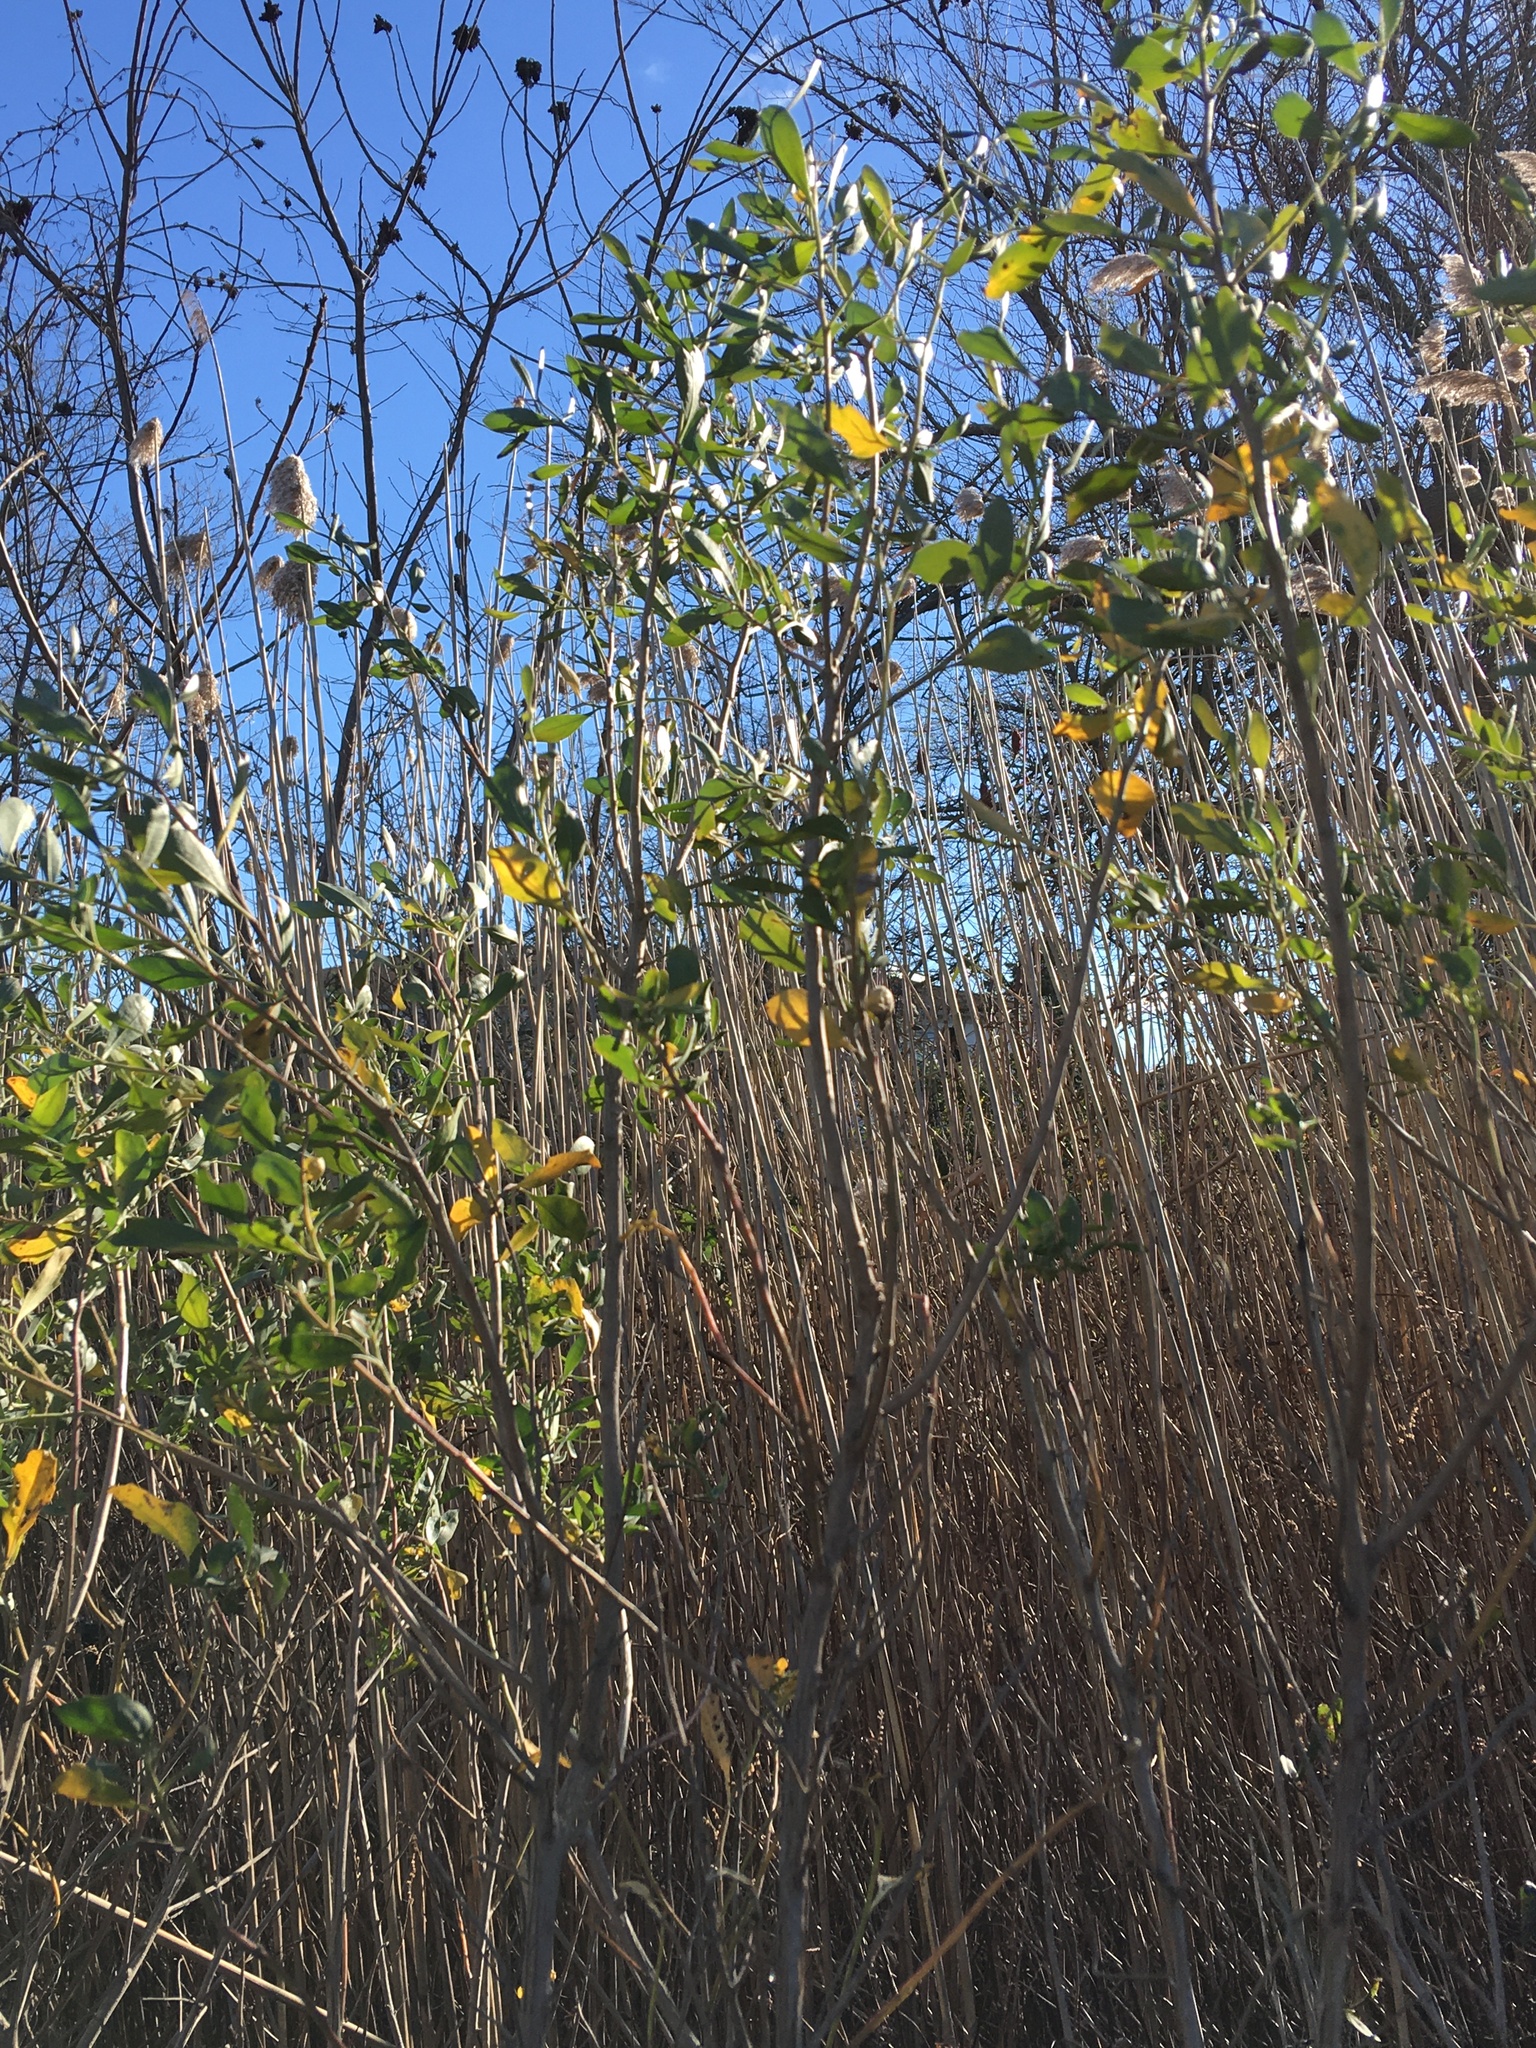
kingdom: Plantae
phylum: Tracheophyta
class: Magnoliopsida
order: Asterales
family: Asteraceae
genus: Baccharis
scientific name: Baccharis halimifolia
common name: Eastern baccharis
